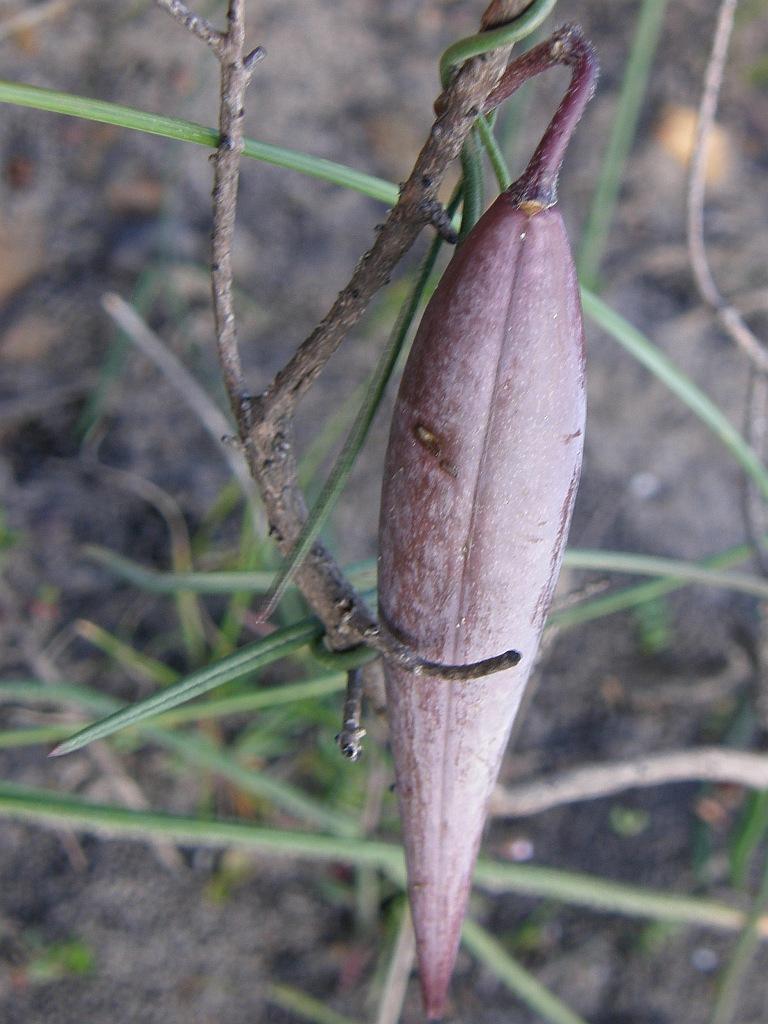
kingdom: Plantae
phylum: Tracheophyta
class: Magnoliopsida
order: Gentianales
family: Apocynaceae
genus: Microloma
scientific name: Microloma tenuifolium
